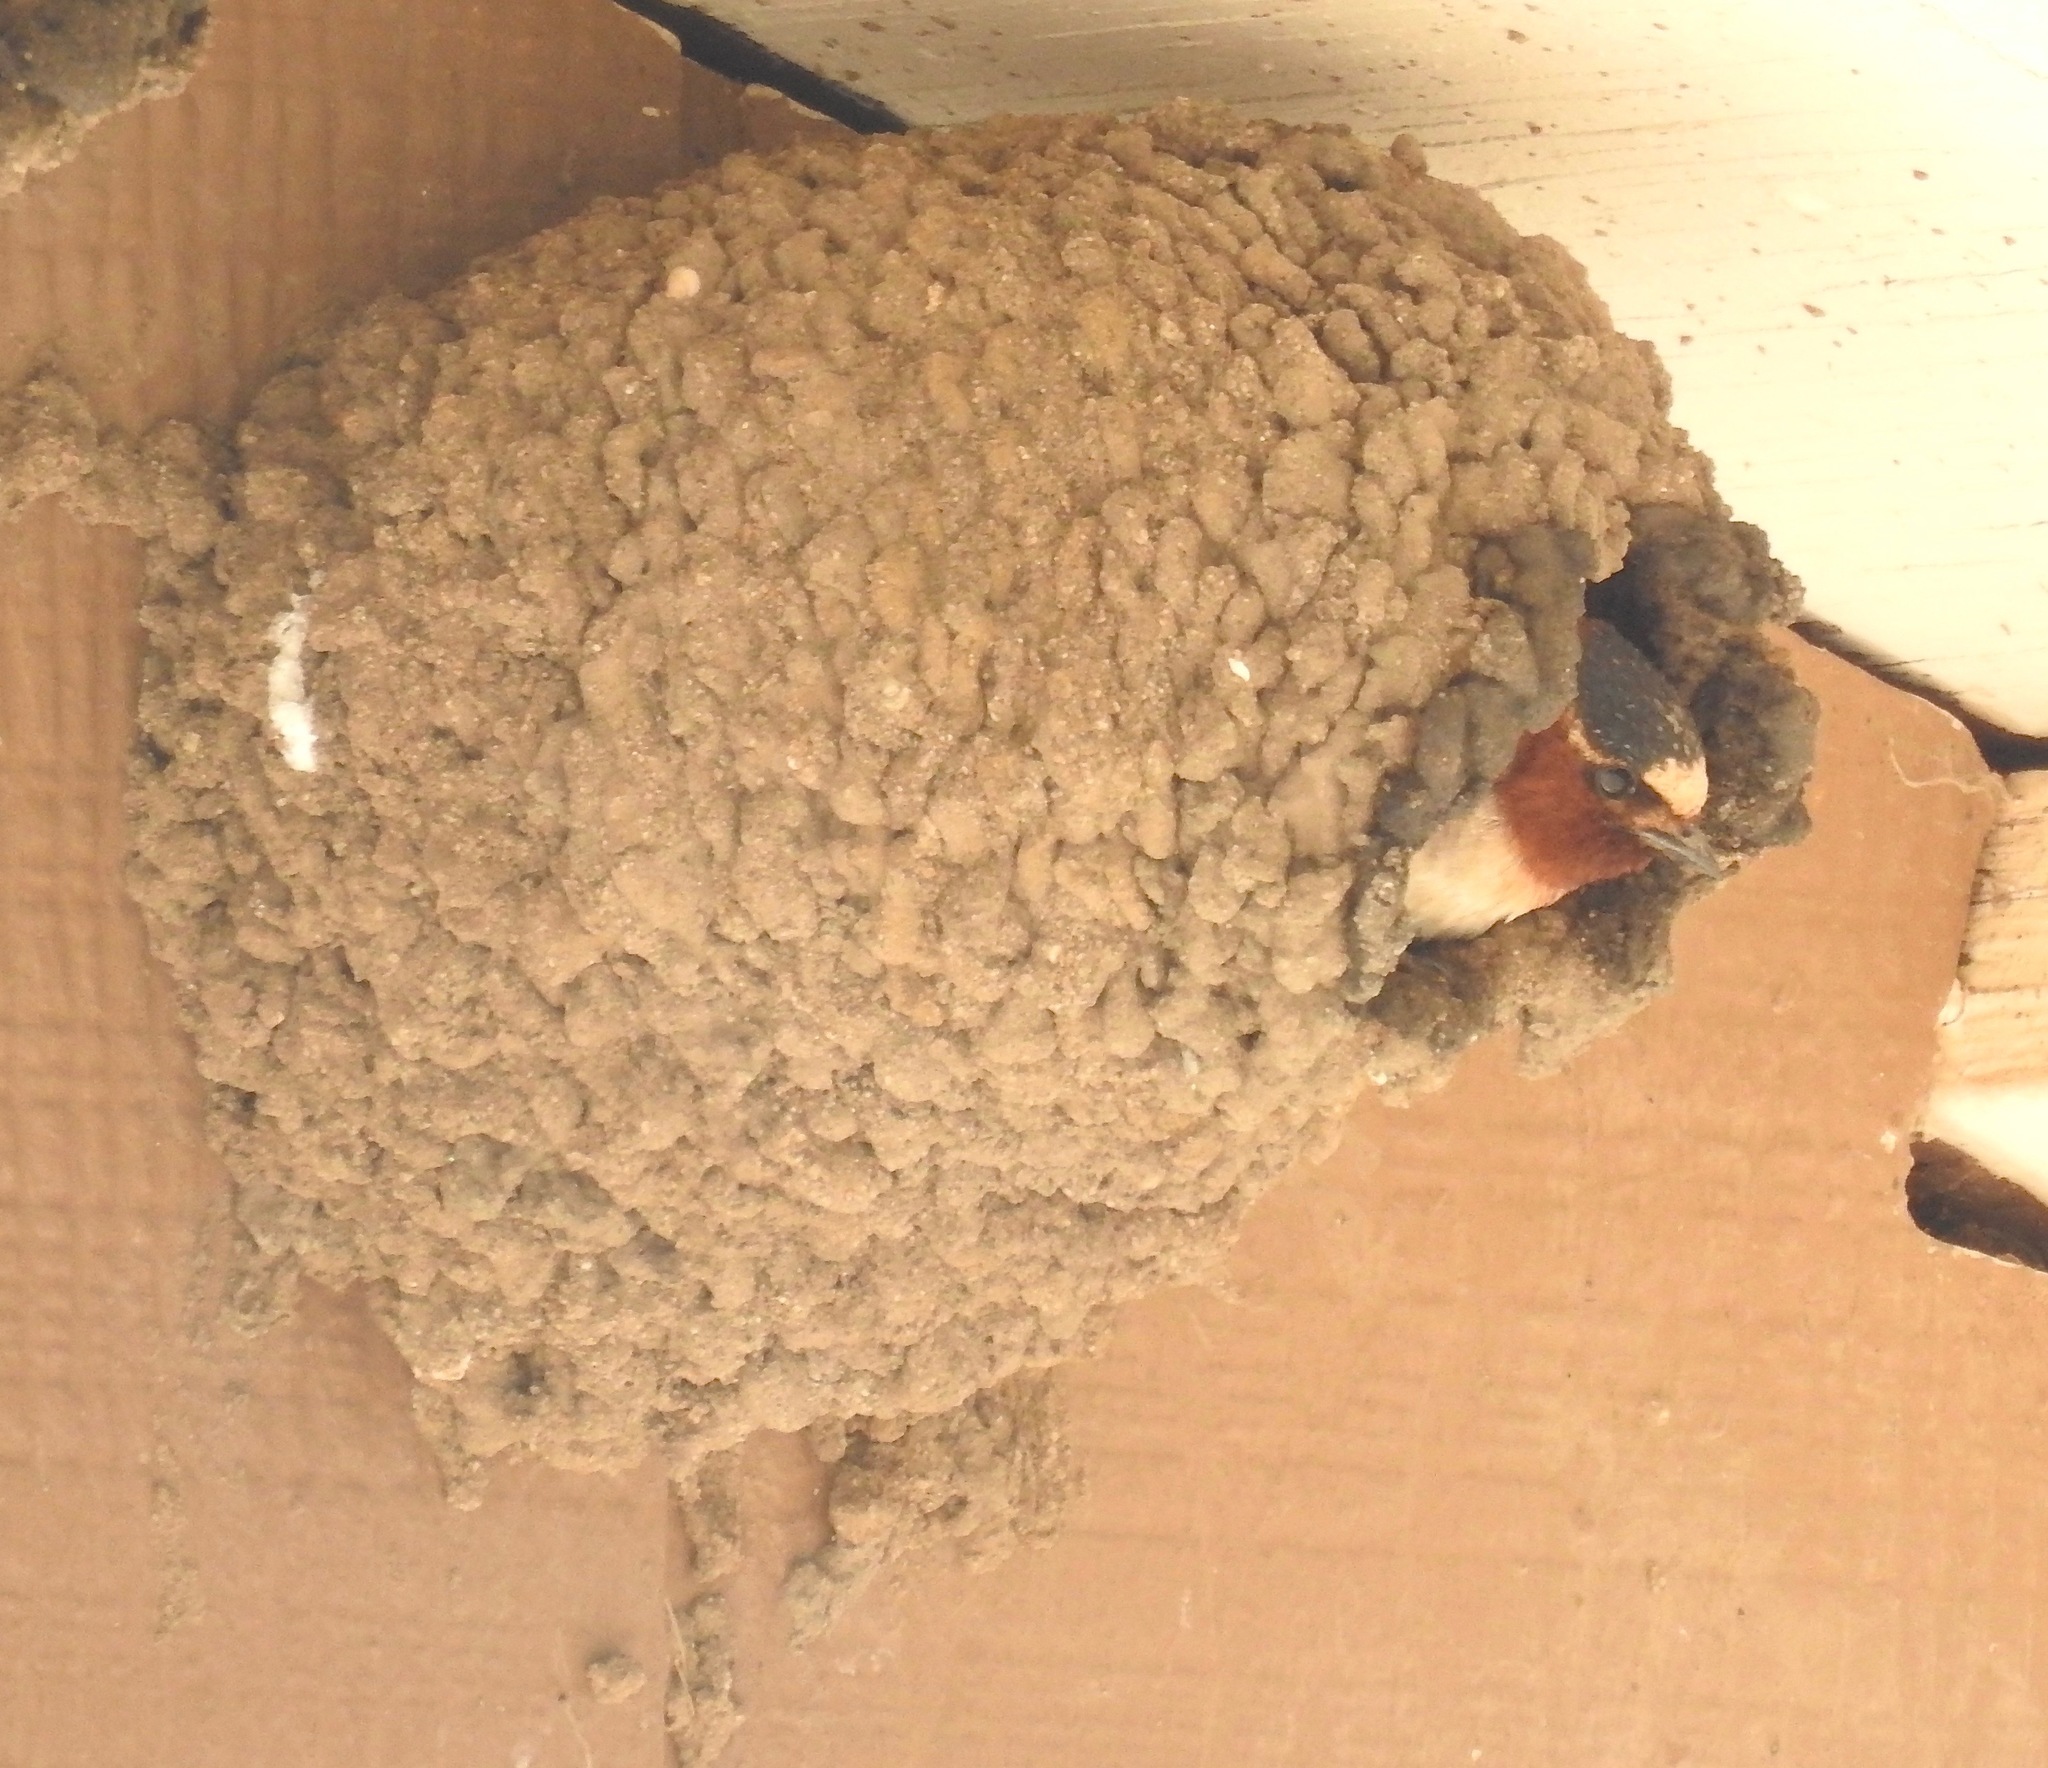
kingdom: Animalia
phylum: Chordata
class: Aves
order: Passeriformes
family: Hirundinidae
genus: Petrochelidon
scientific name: Petrochelidon pyrrhonota
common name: American cliff swallow
